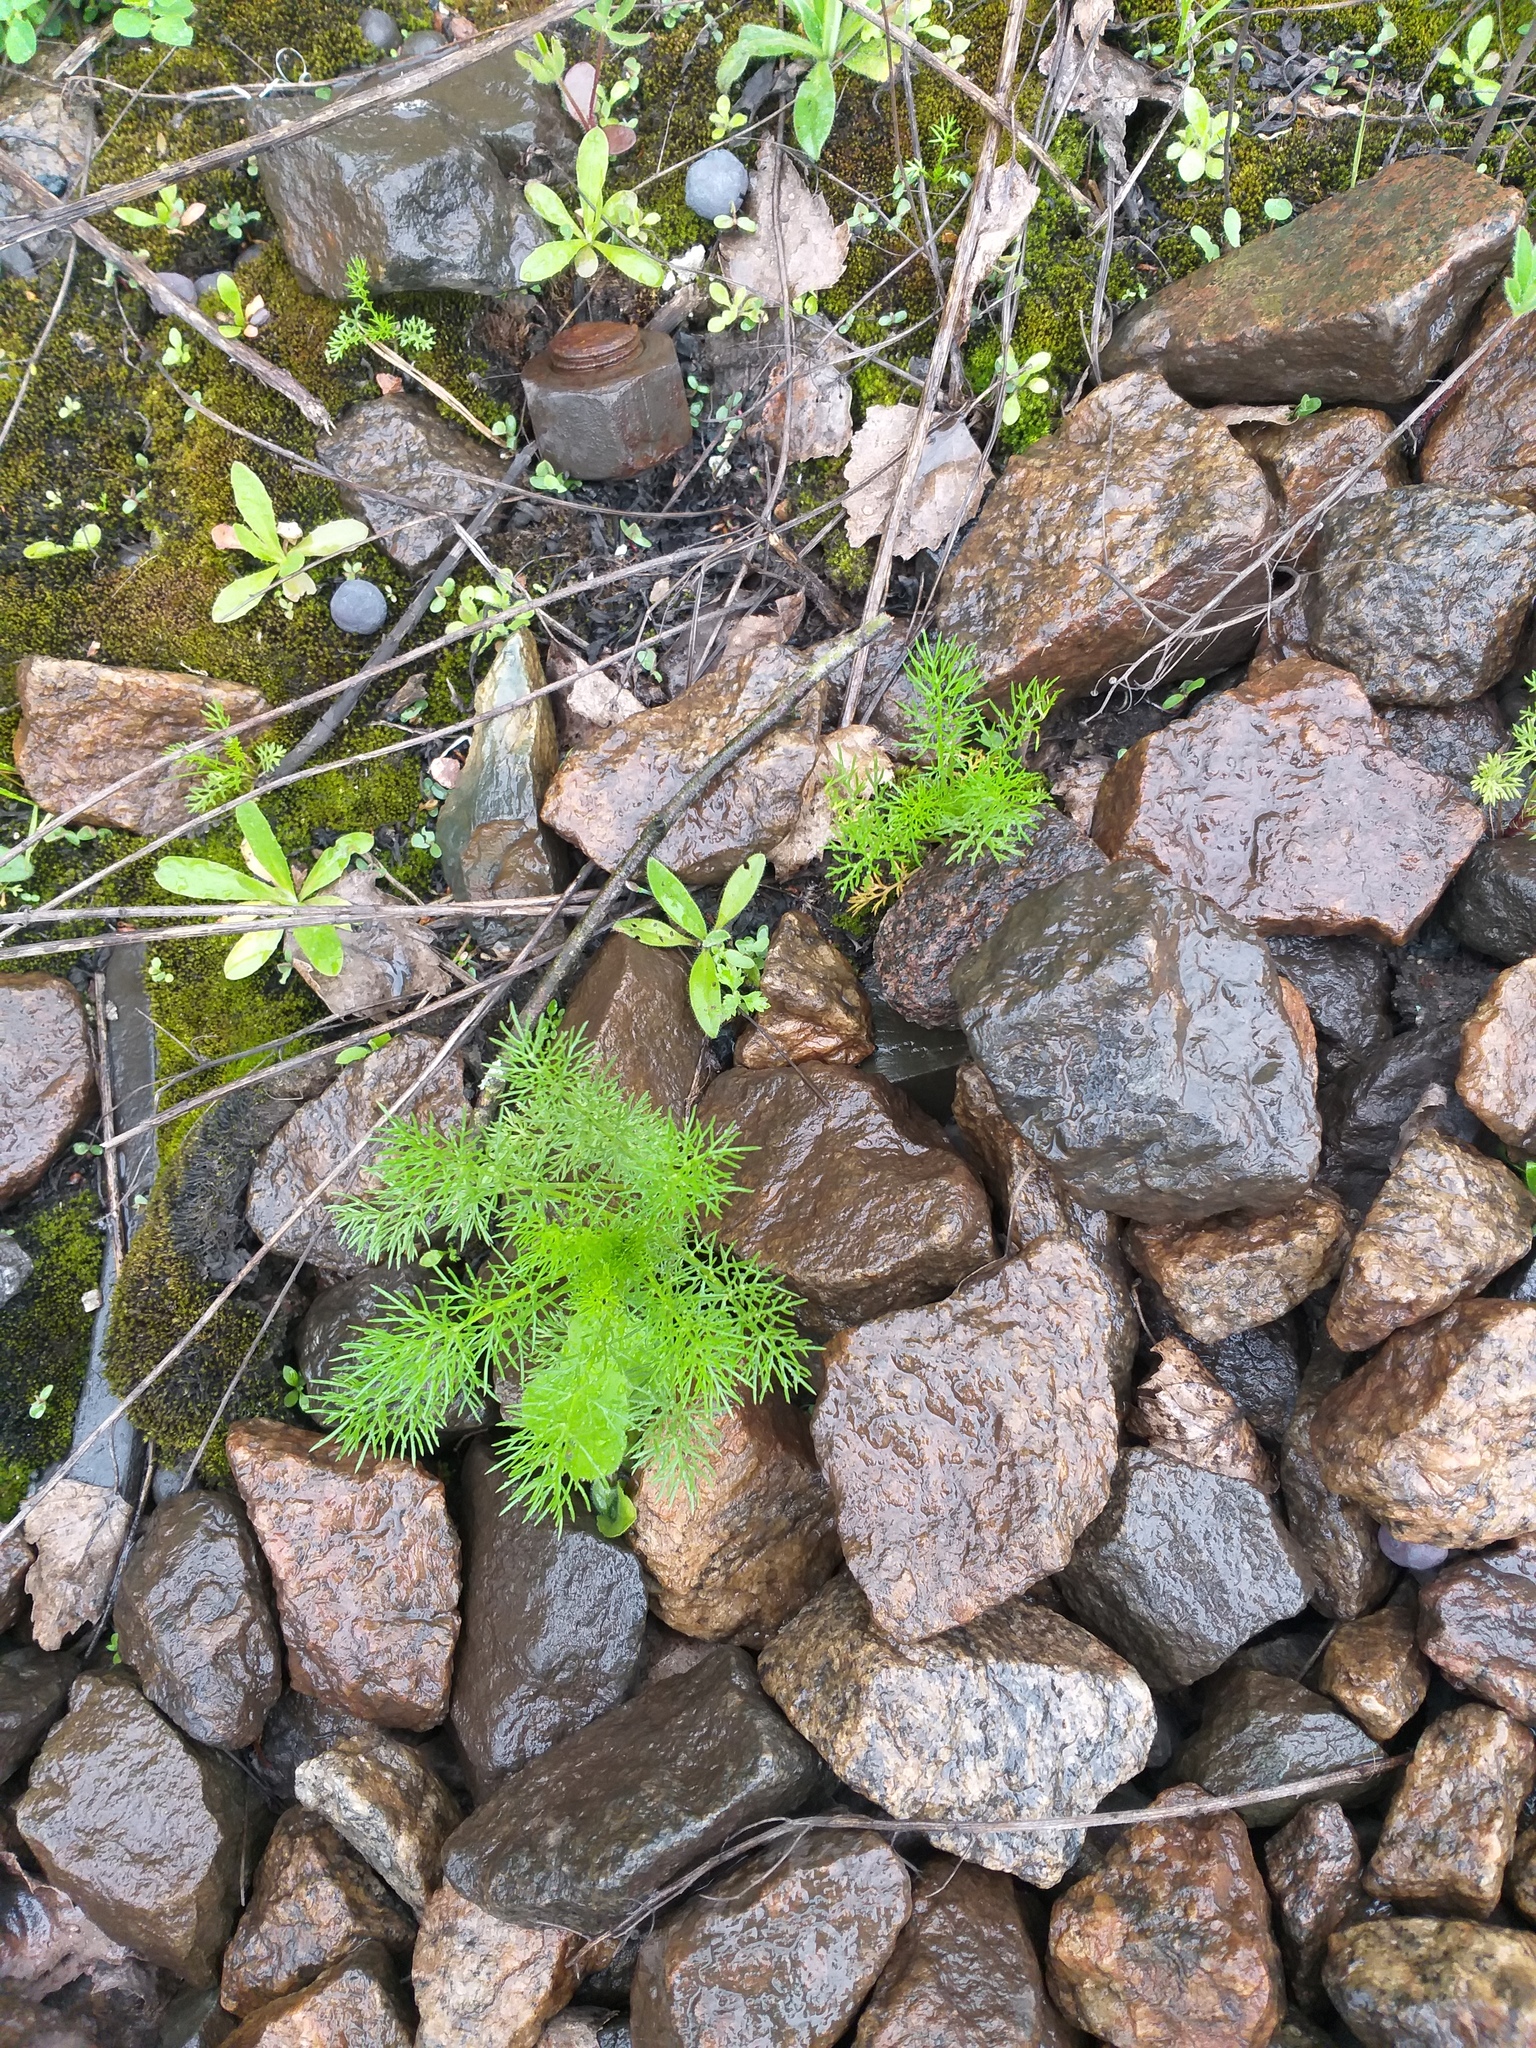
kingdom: Plantae
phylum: Tracheophyta
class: Magnoliopsida
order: Asterales
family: Asteraceae
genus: Tripleurospermum
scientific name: Tripleurospermum inodorum
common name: Scentless mayweed
